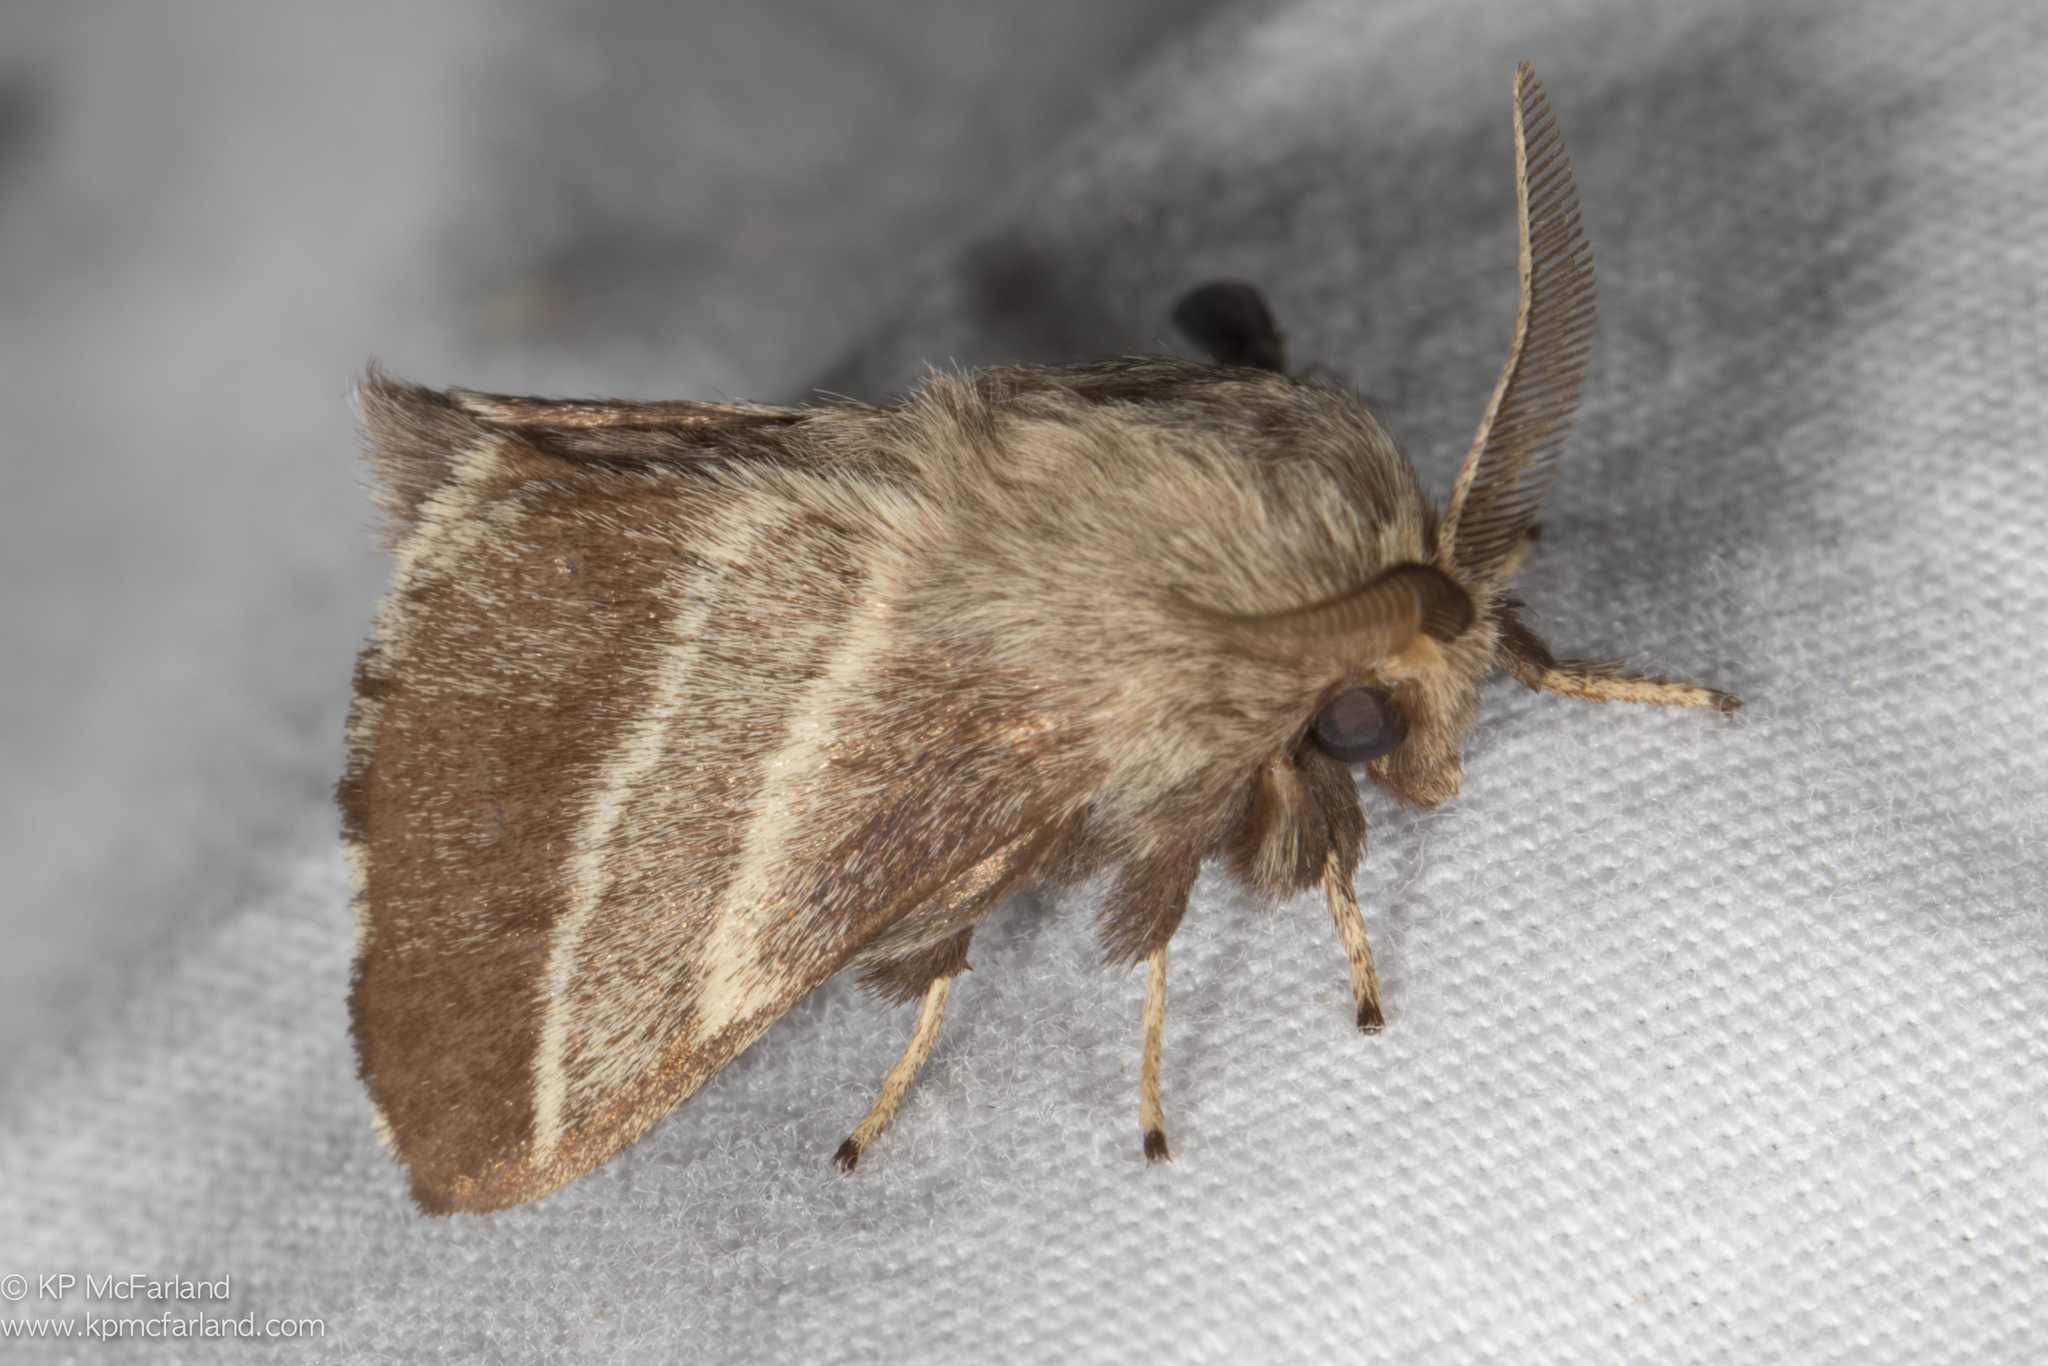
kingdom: Animalia
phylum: Arthropoda
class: Insecta
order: Lepidoptera
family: Lasiocampidae
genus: Malacosoma
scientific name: Malacosoma americana
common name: Eastern tent caterpillar moth
